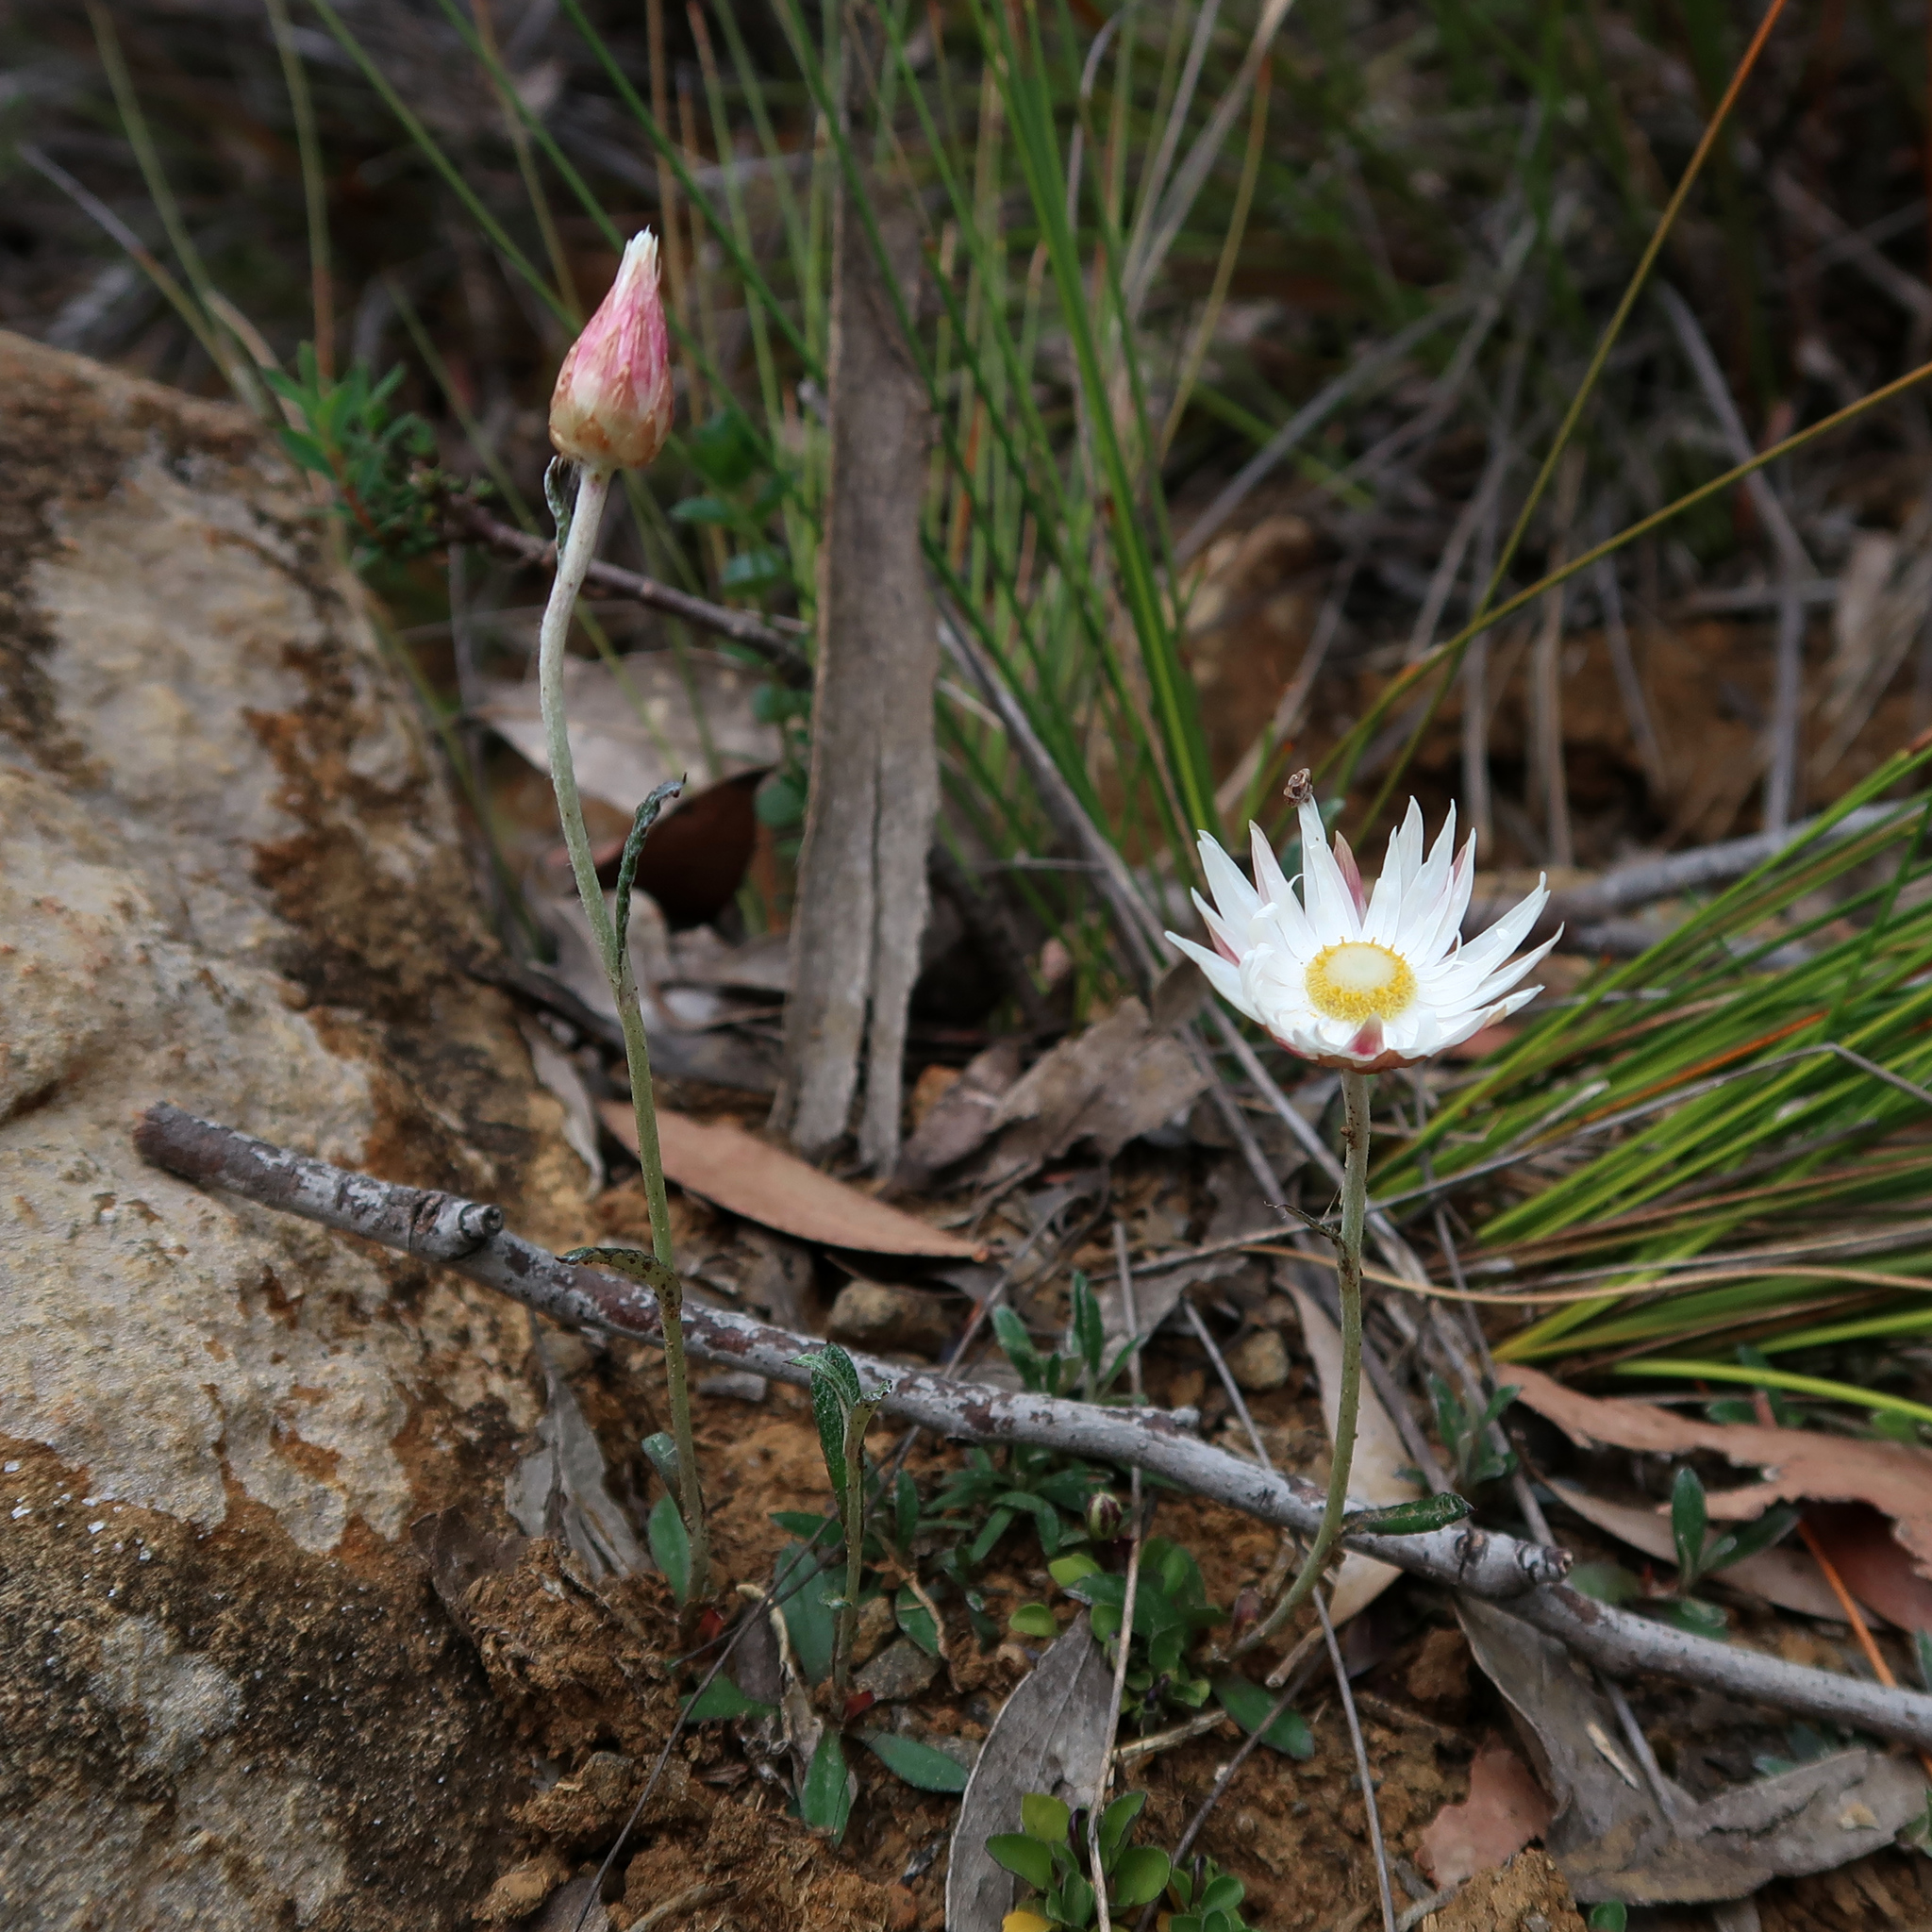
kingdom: Plantae
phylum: Tracheophyta
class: Magnoliopsida
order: Asterales
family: Asteraceae
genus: Argentipallium
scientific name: Argentipallium dealbatum
